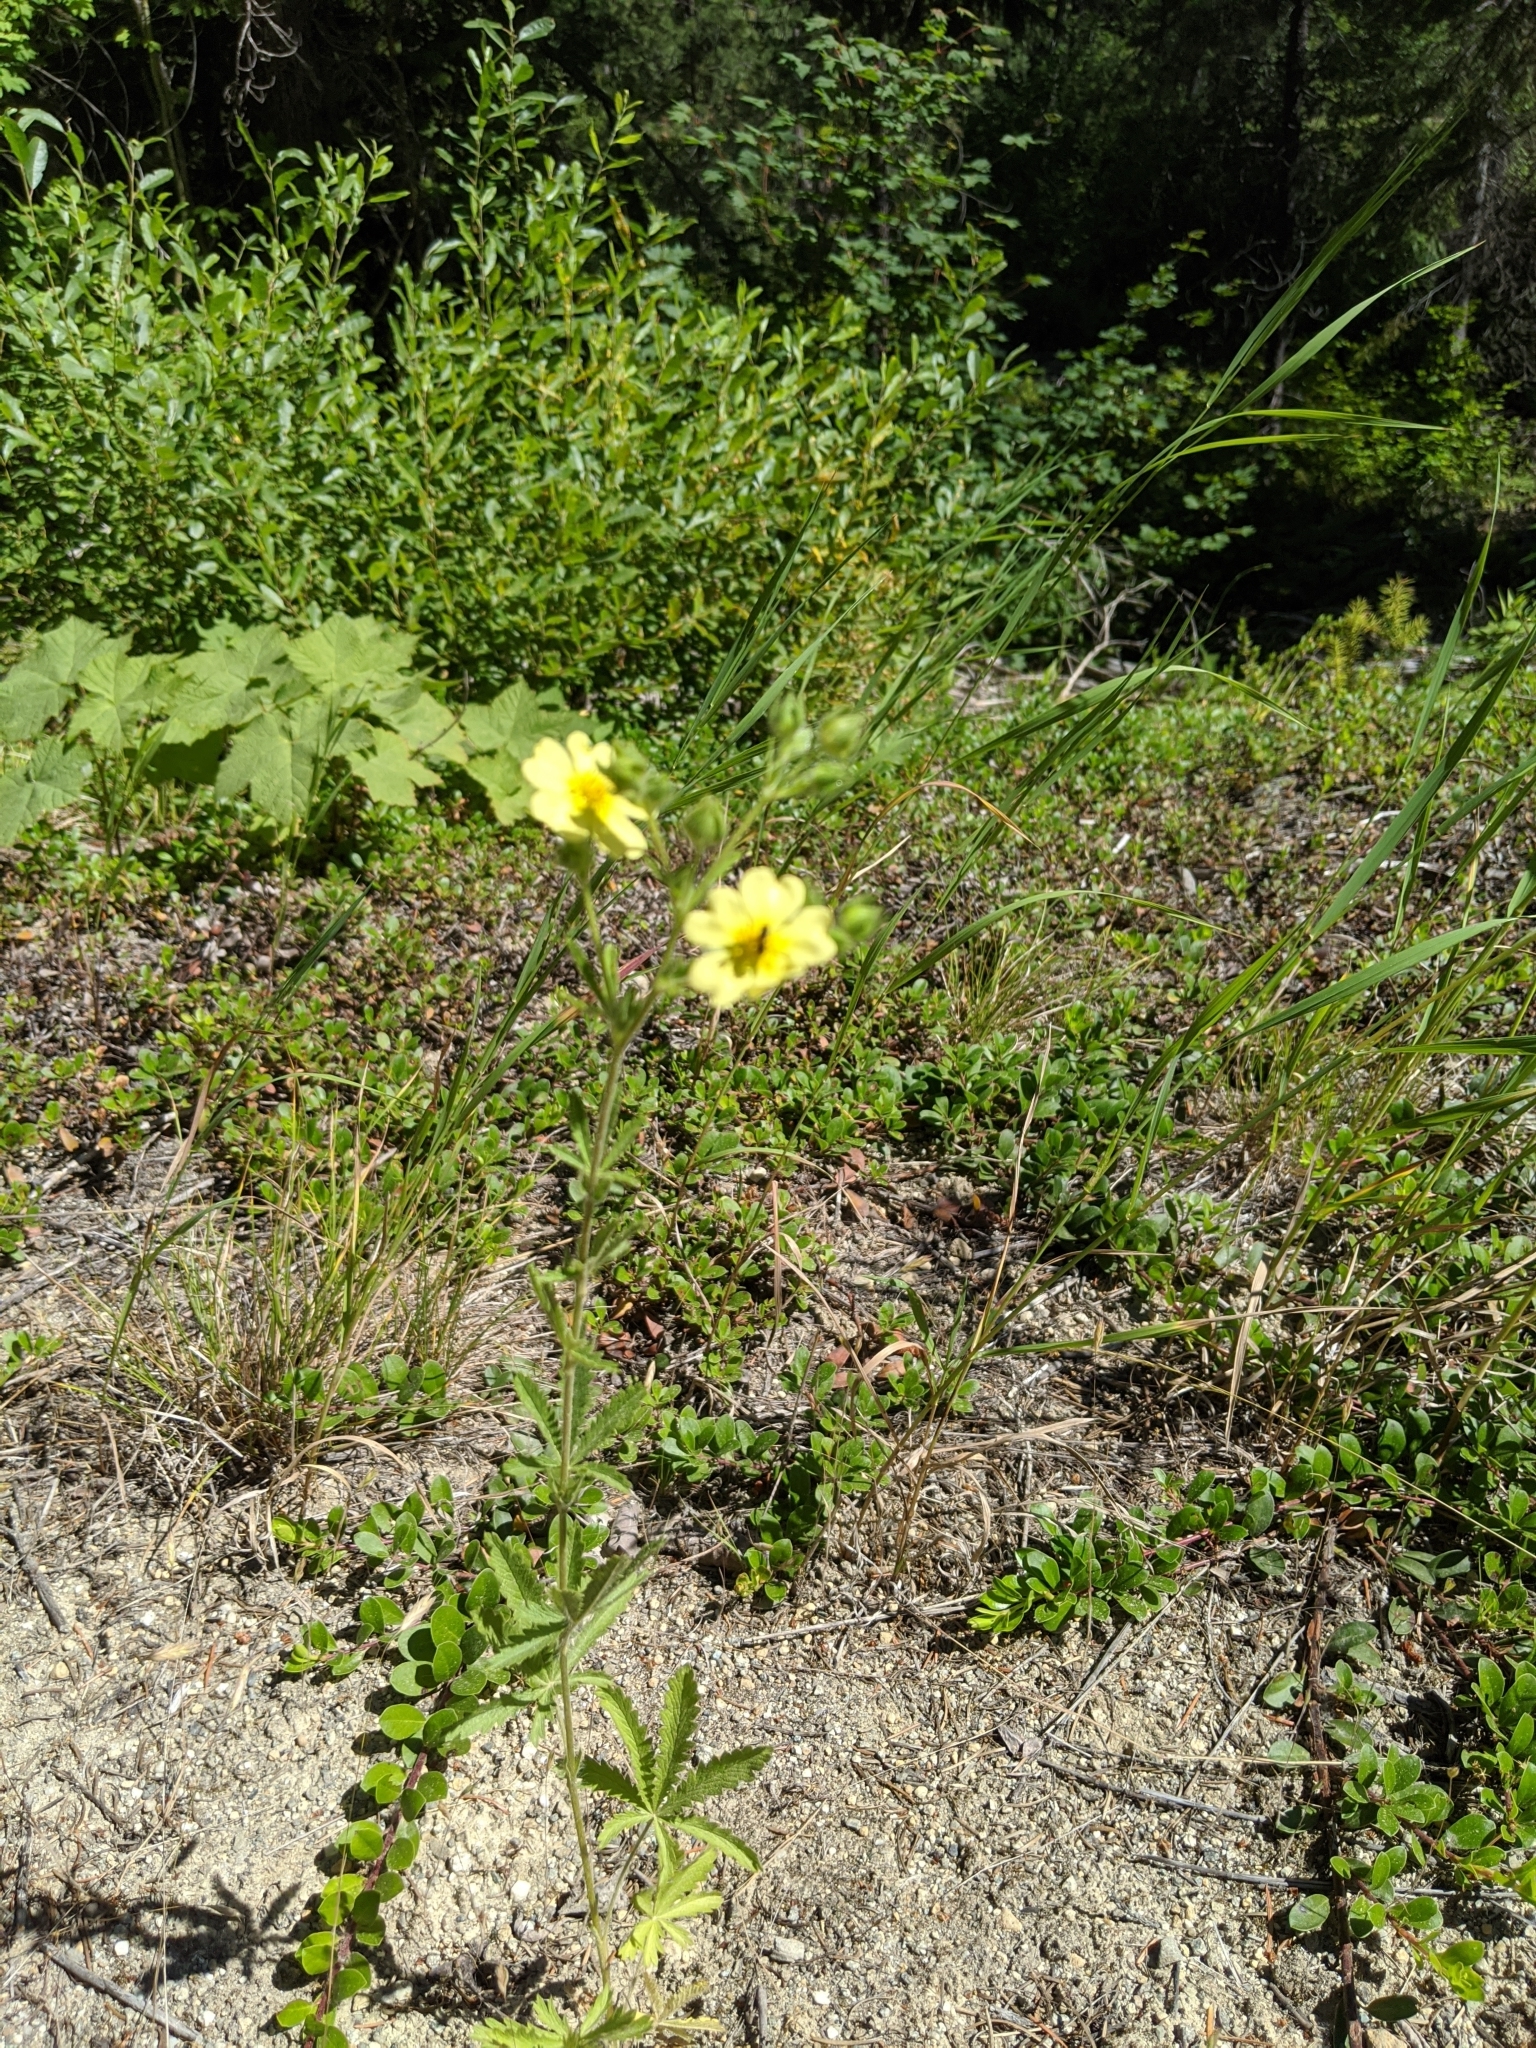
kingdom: Plantae
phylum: Tracheophyta
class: Magnoliopsida
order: Rosales
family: Rosaceae
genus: Potentilla
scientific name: Potentilla recta
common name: Sulphur cinquefoil
